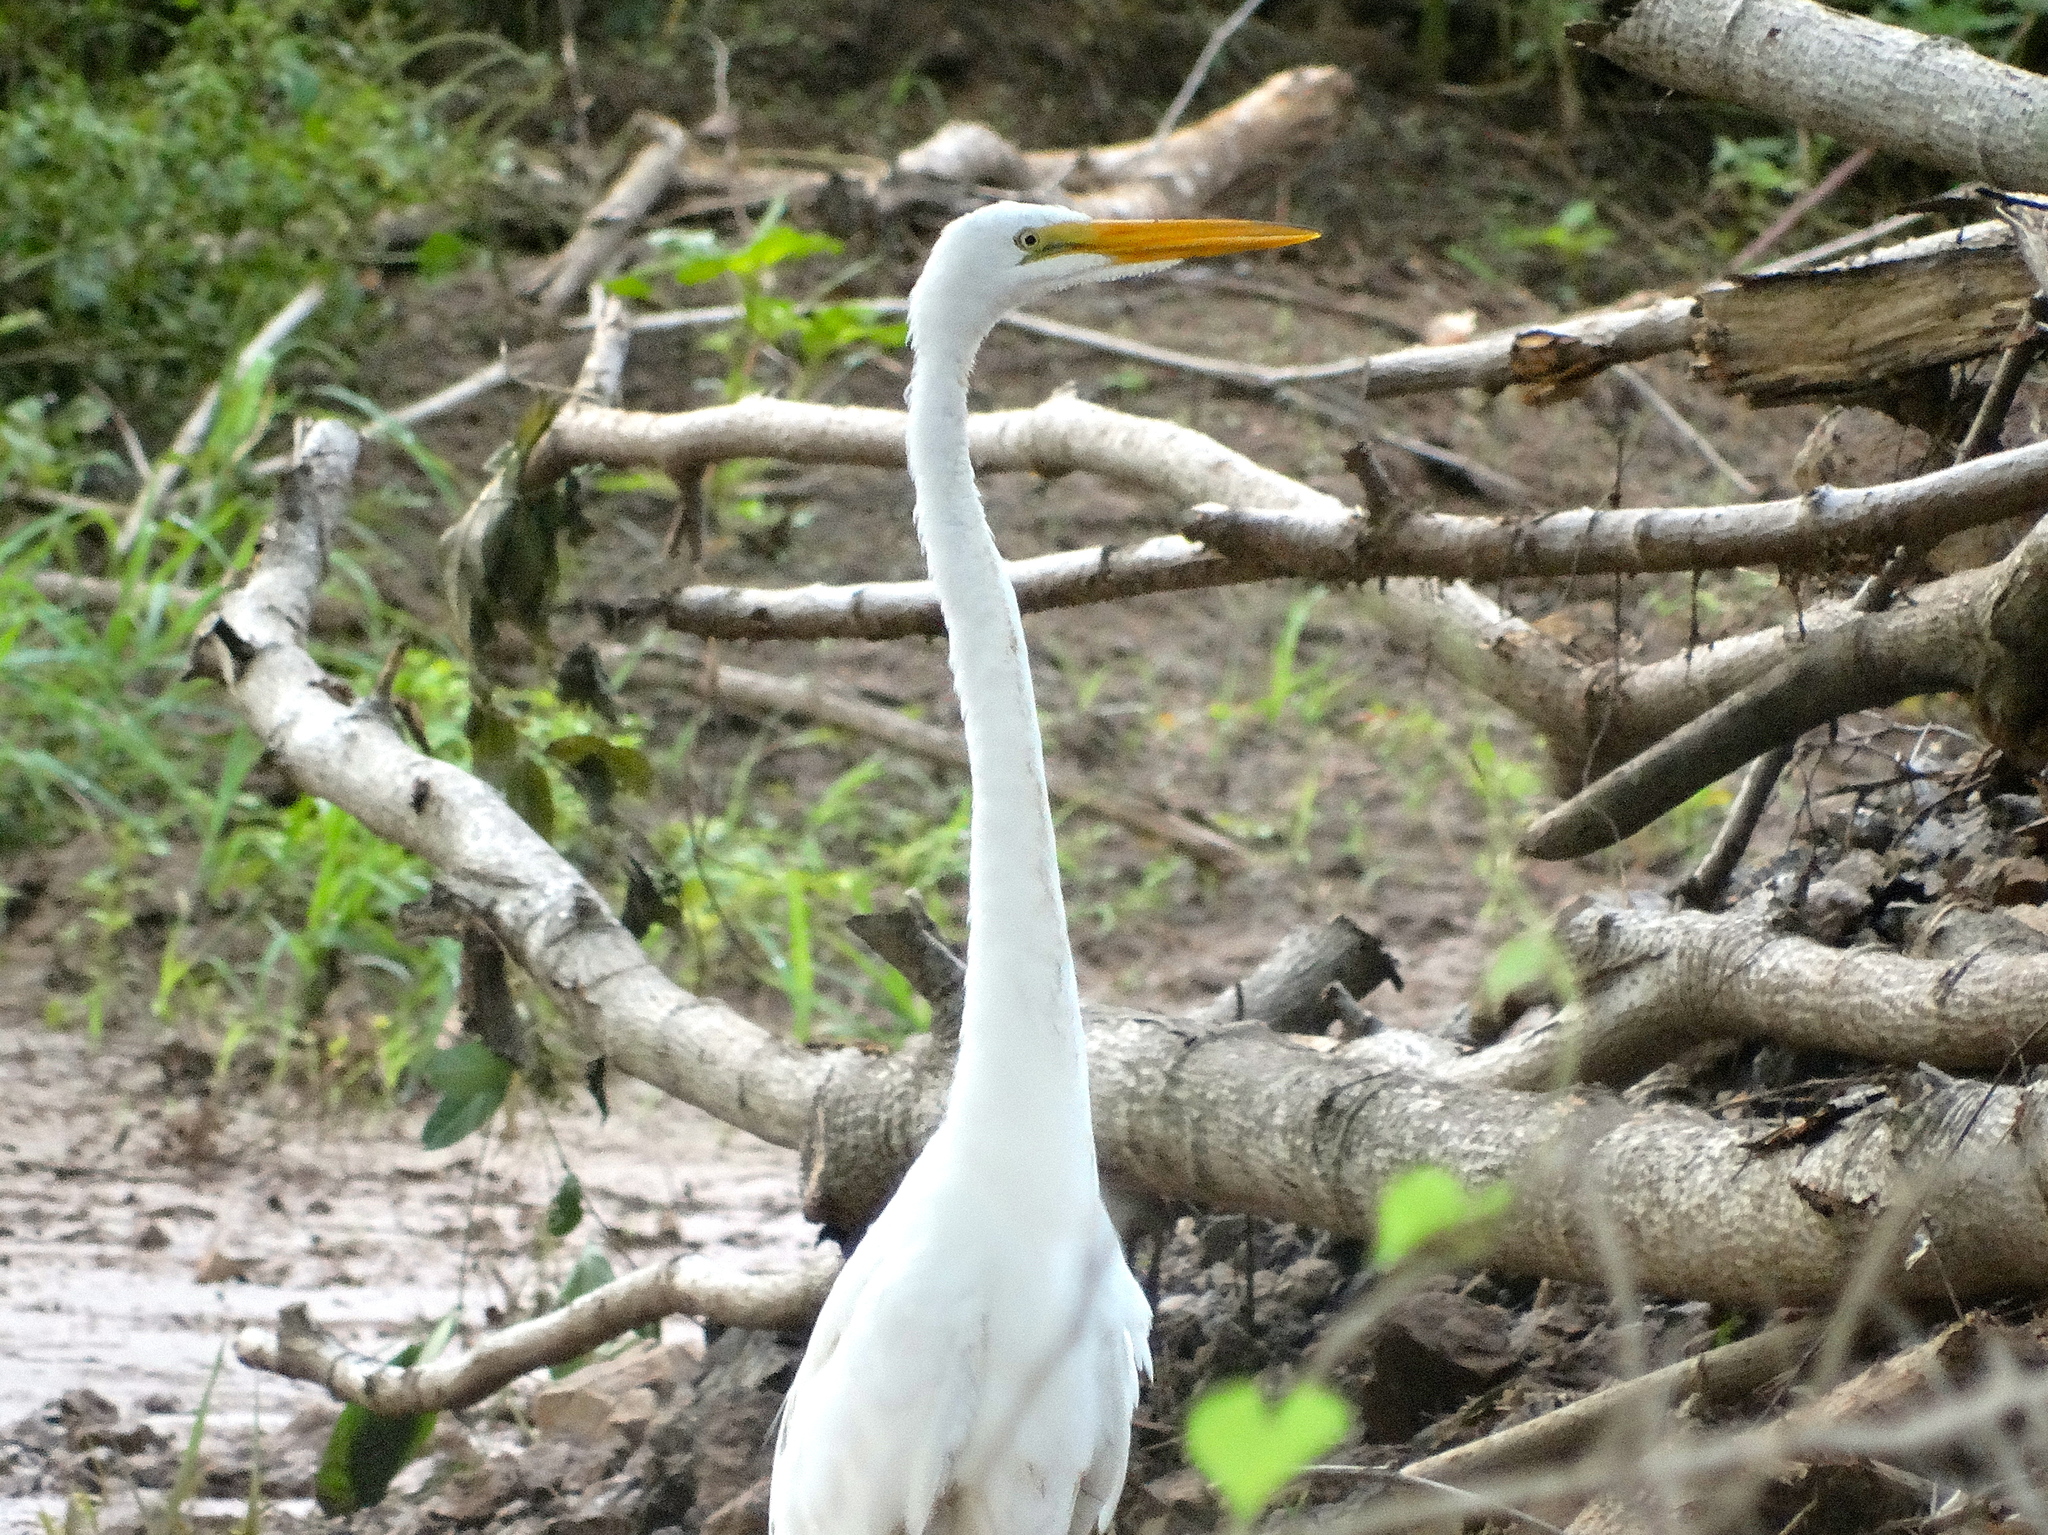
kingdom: Animalia
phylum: Chordata
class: Aves
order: Pelecaniformes
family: Ardeidae
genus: Ardea
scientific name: Ardea alba
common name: Great egret
